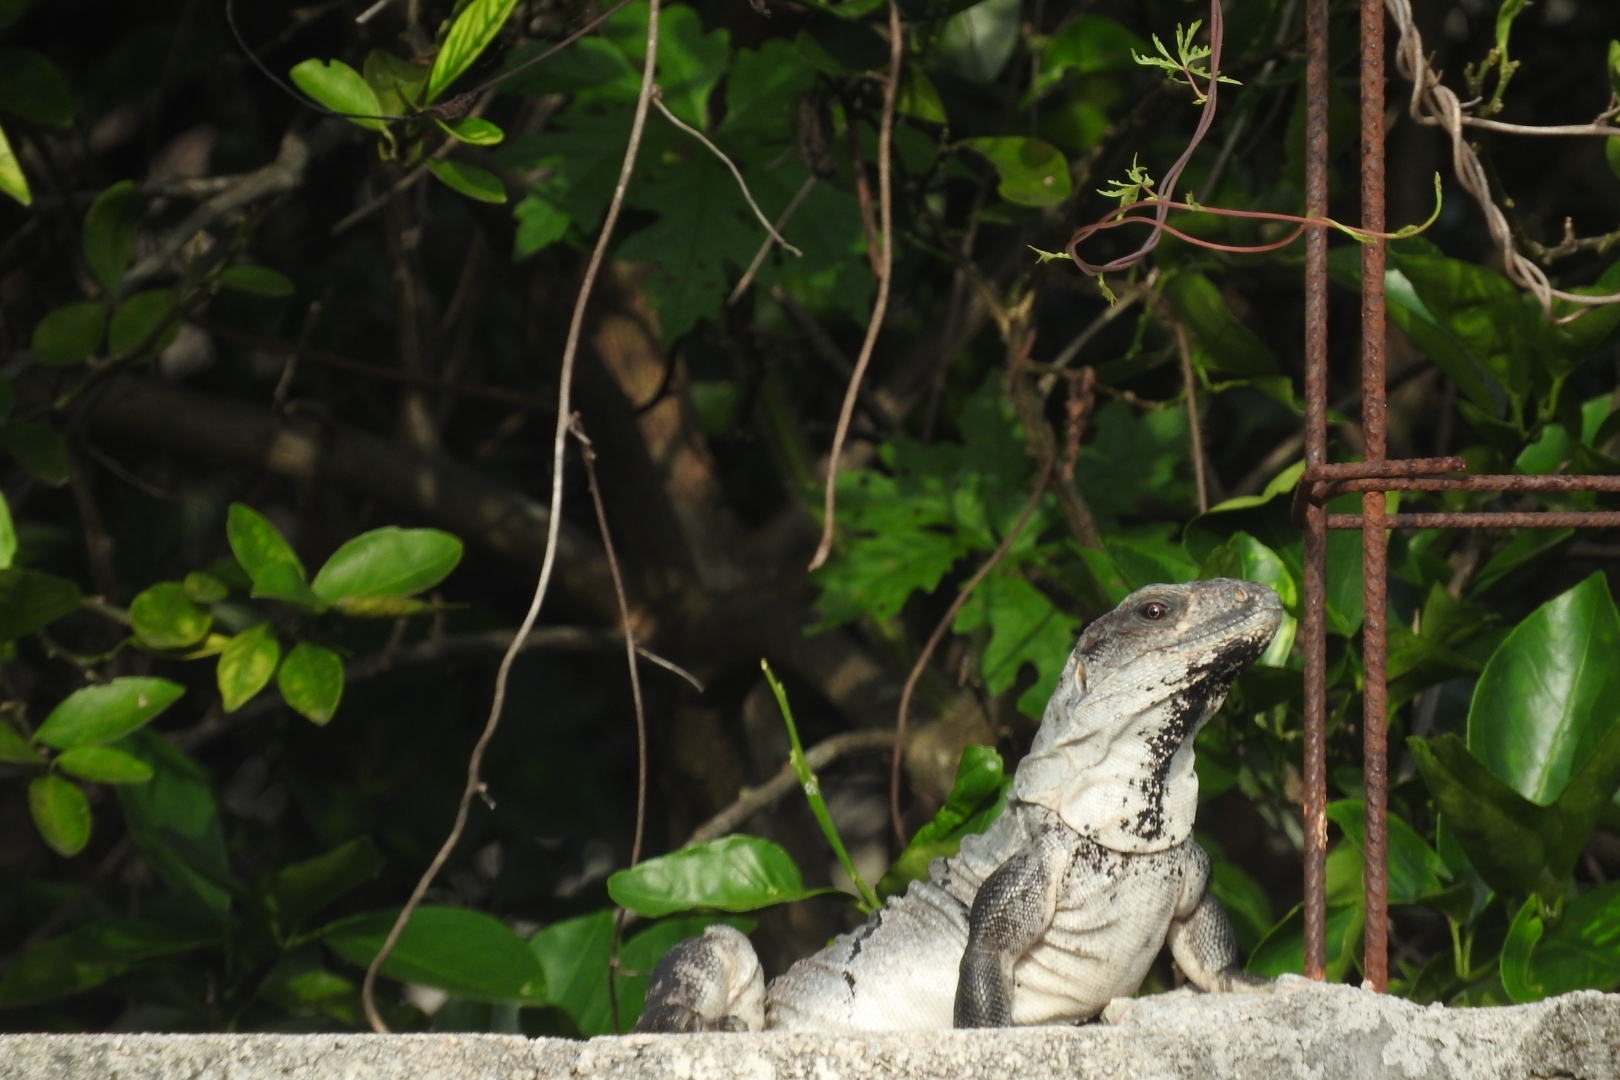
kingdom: Animalia
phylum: Chordata
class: Squamata
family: Iguanidae
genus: Ctenosaura
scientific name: Ctenosaura similis
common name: Black spiny-tailed iguana
